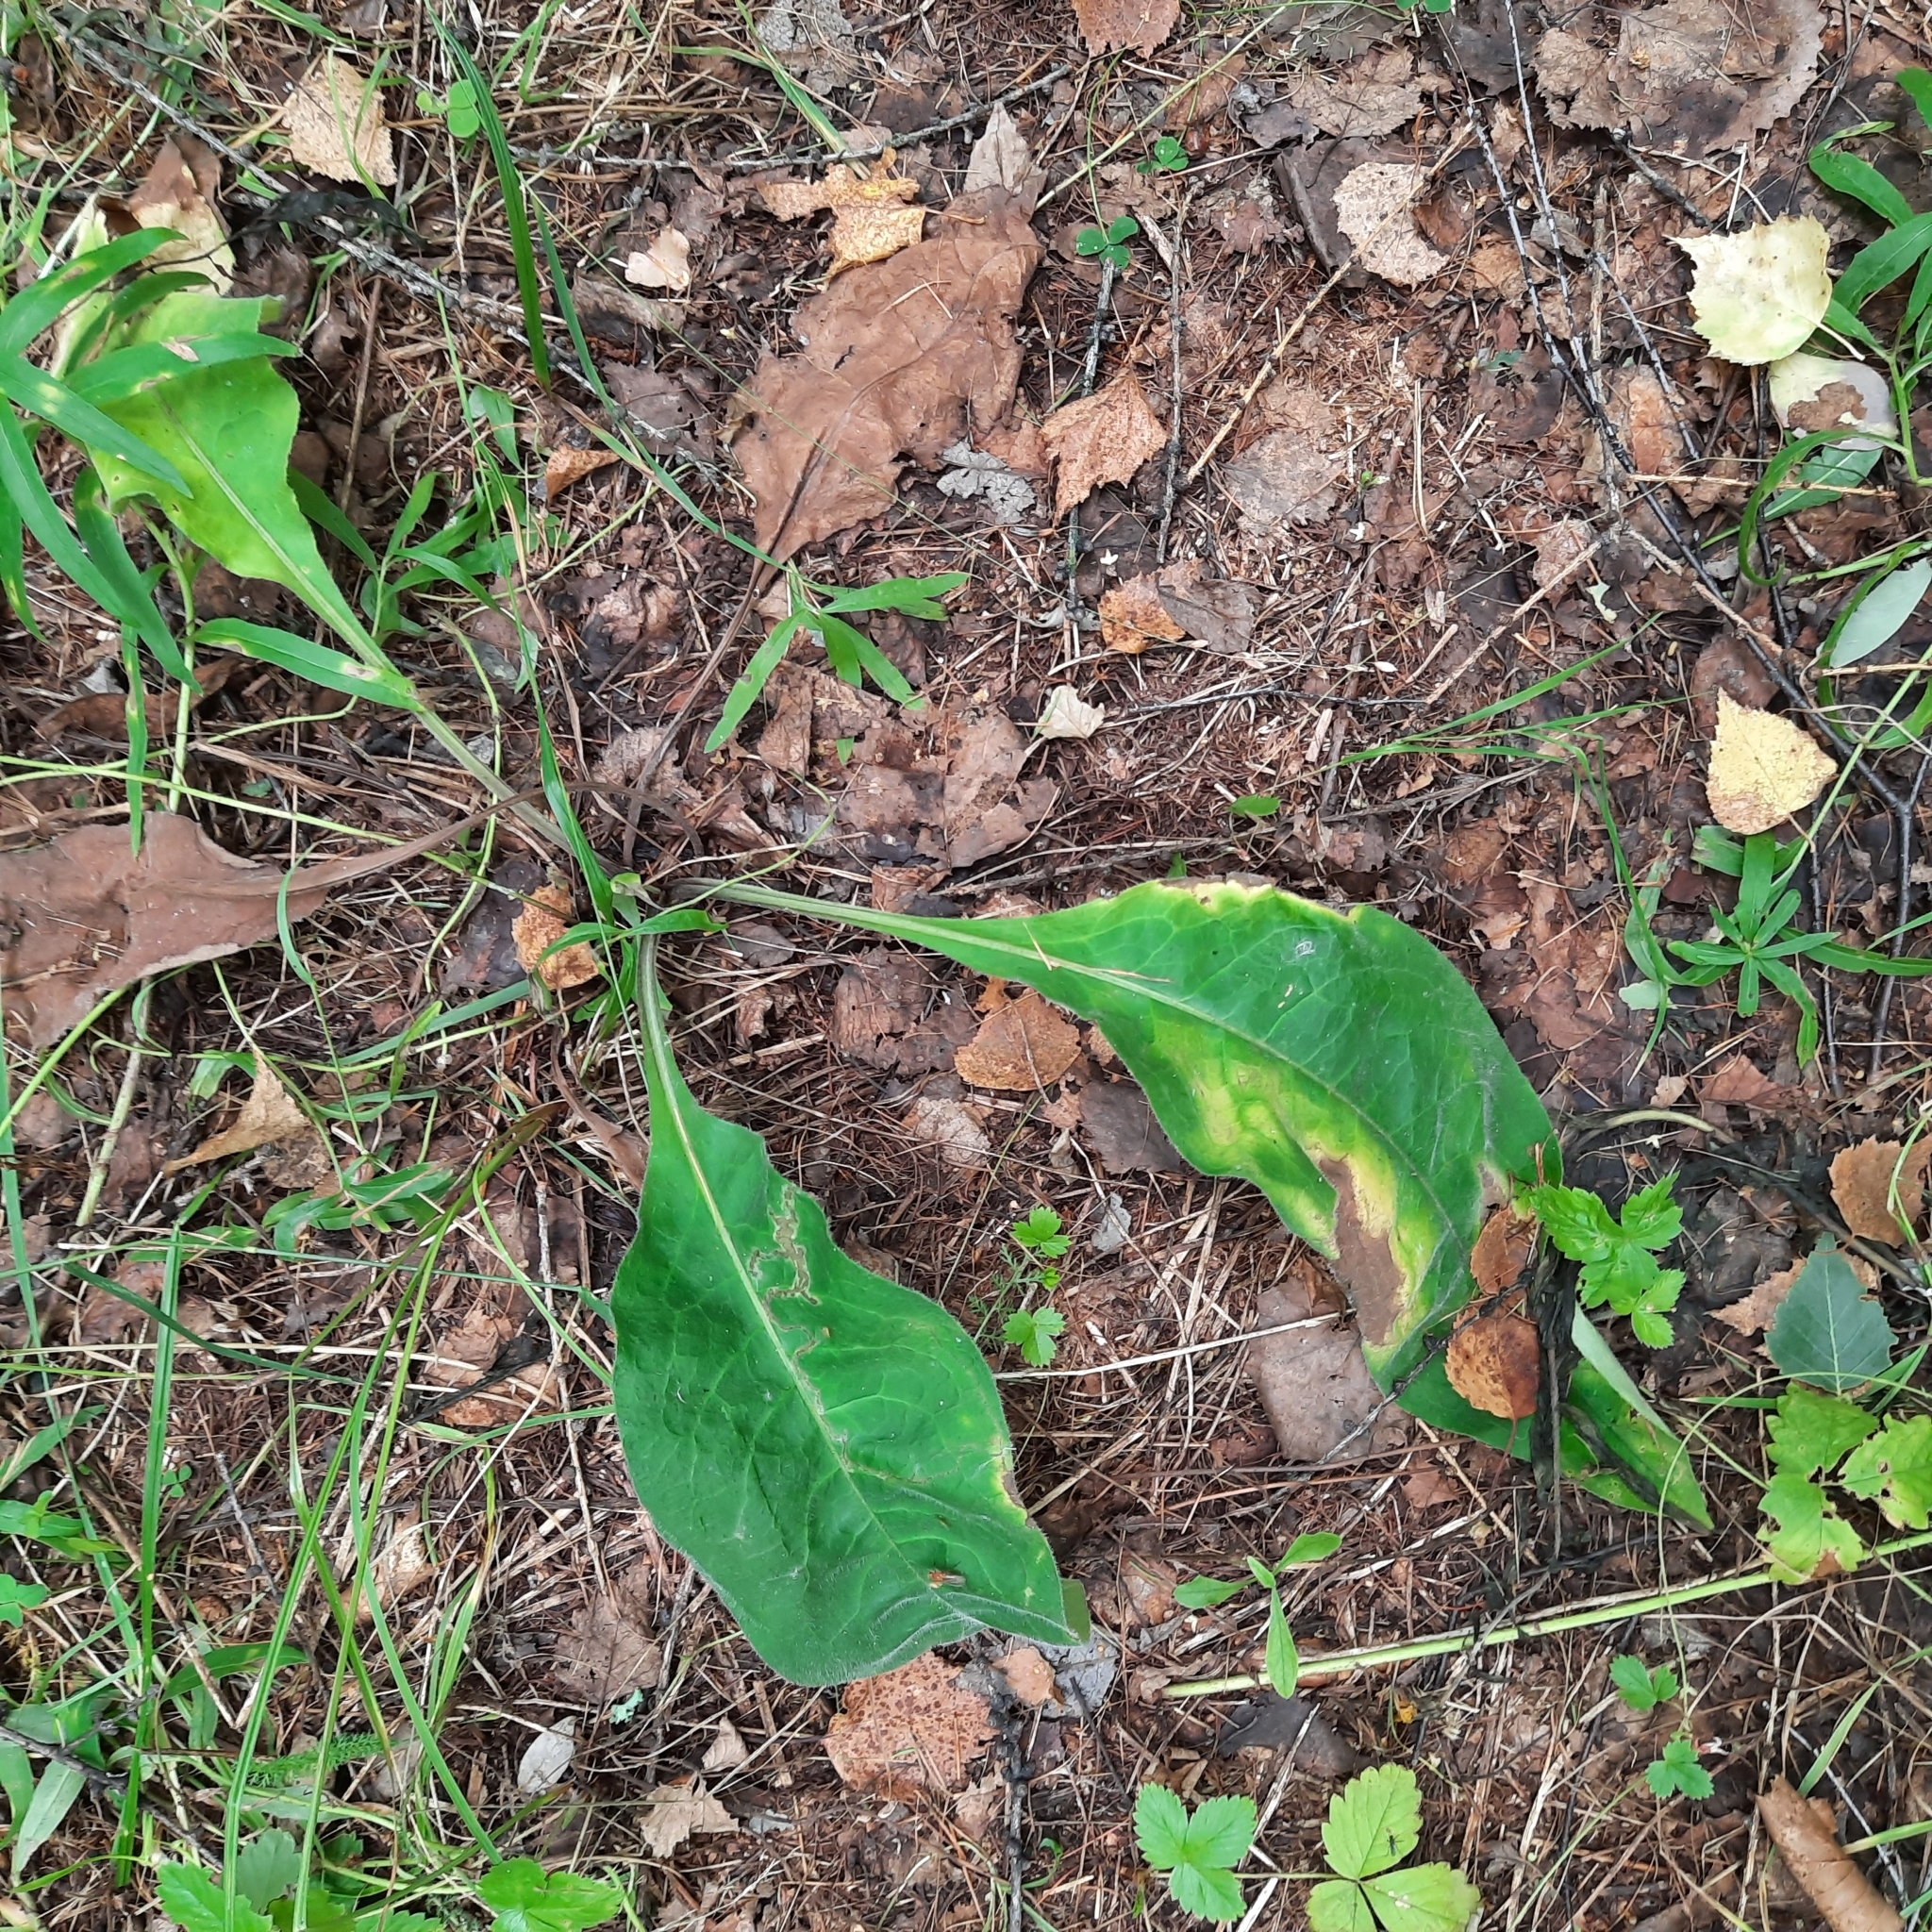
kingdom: Plantae
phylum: Tracheophyta
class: Magnoliopsida
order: Boraginales
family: Boraginaceae
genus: Pulmonaria
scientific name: Pulmonaria mollis
